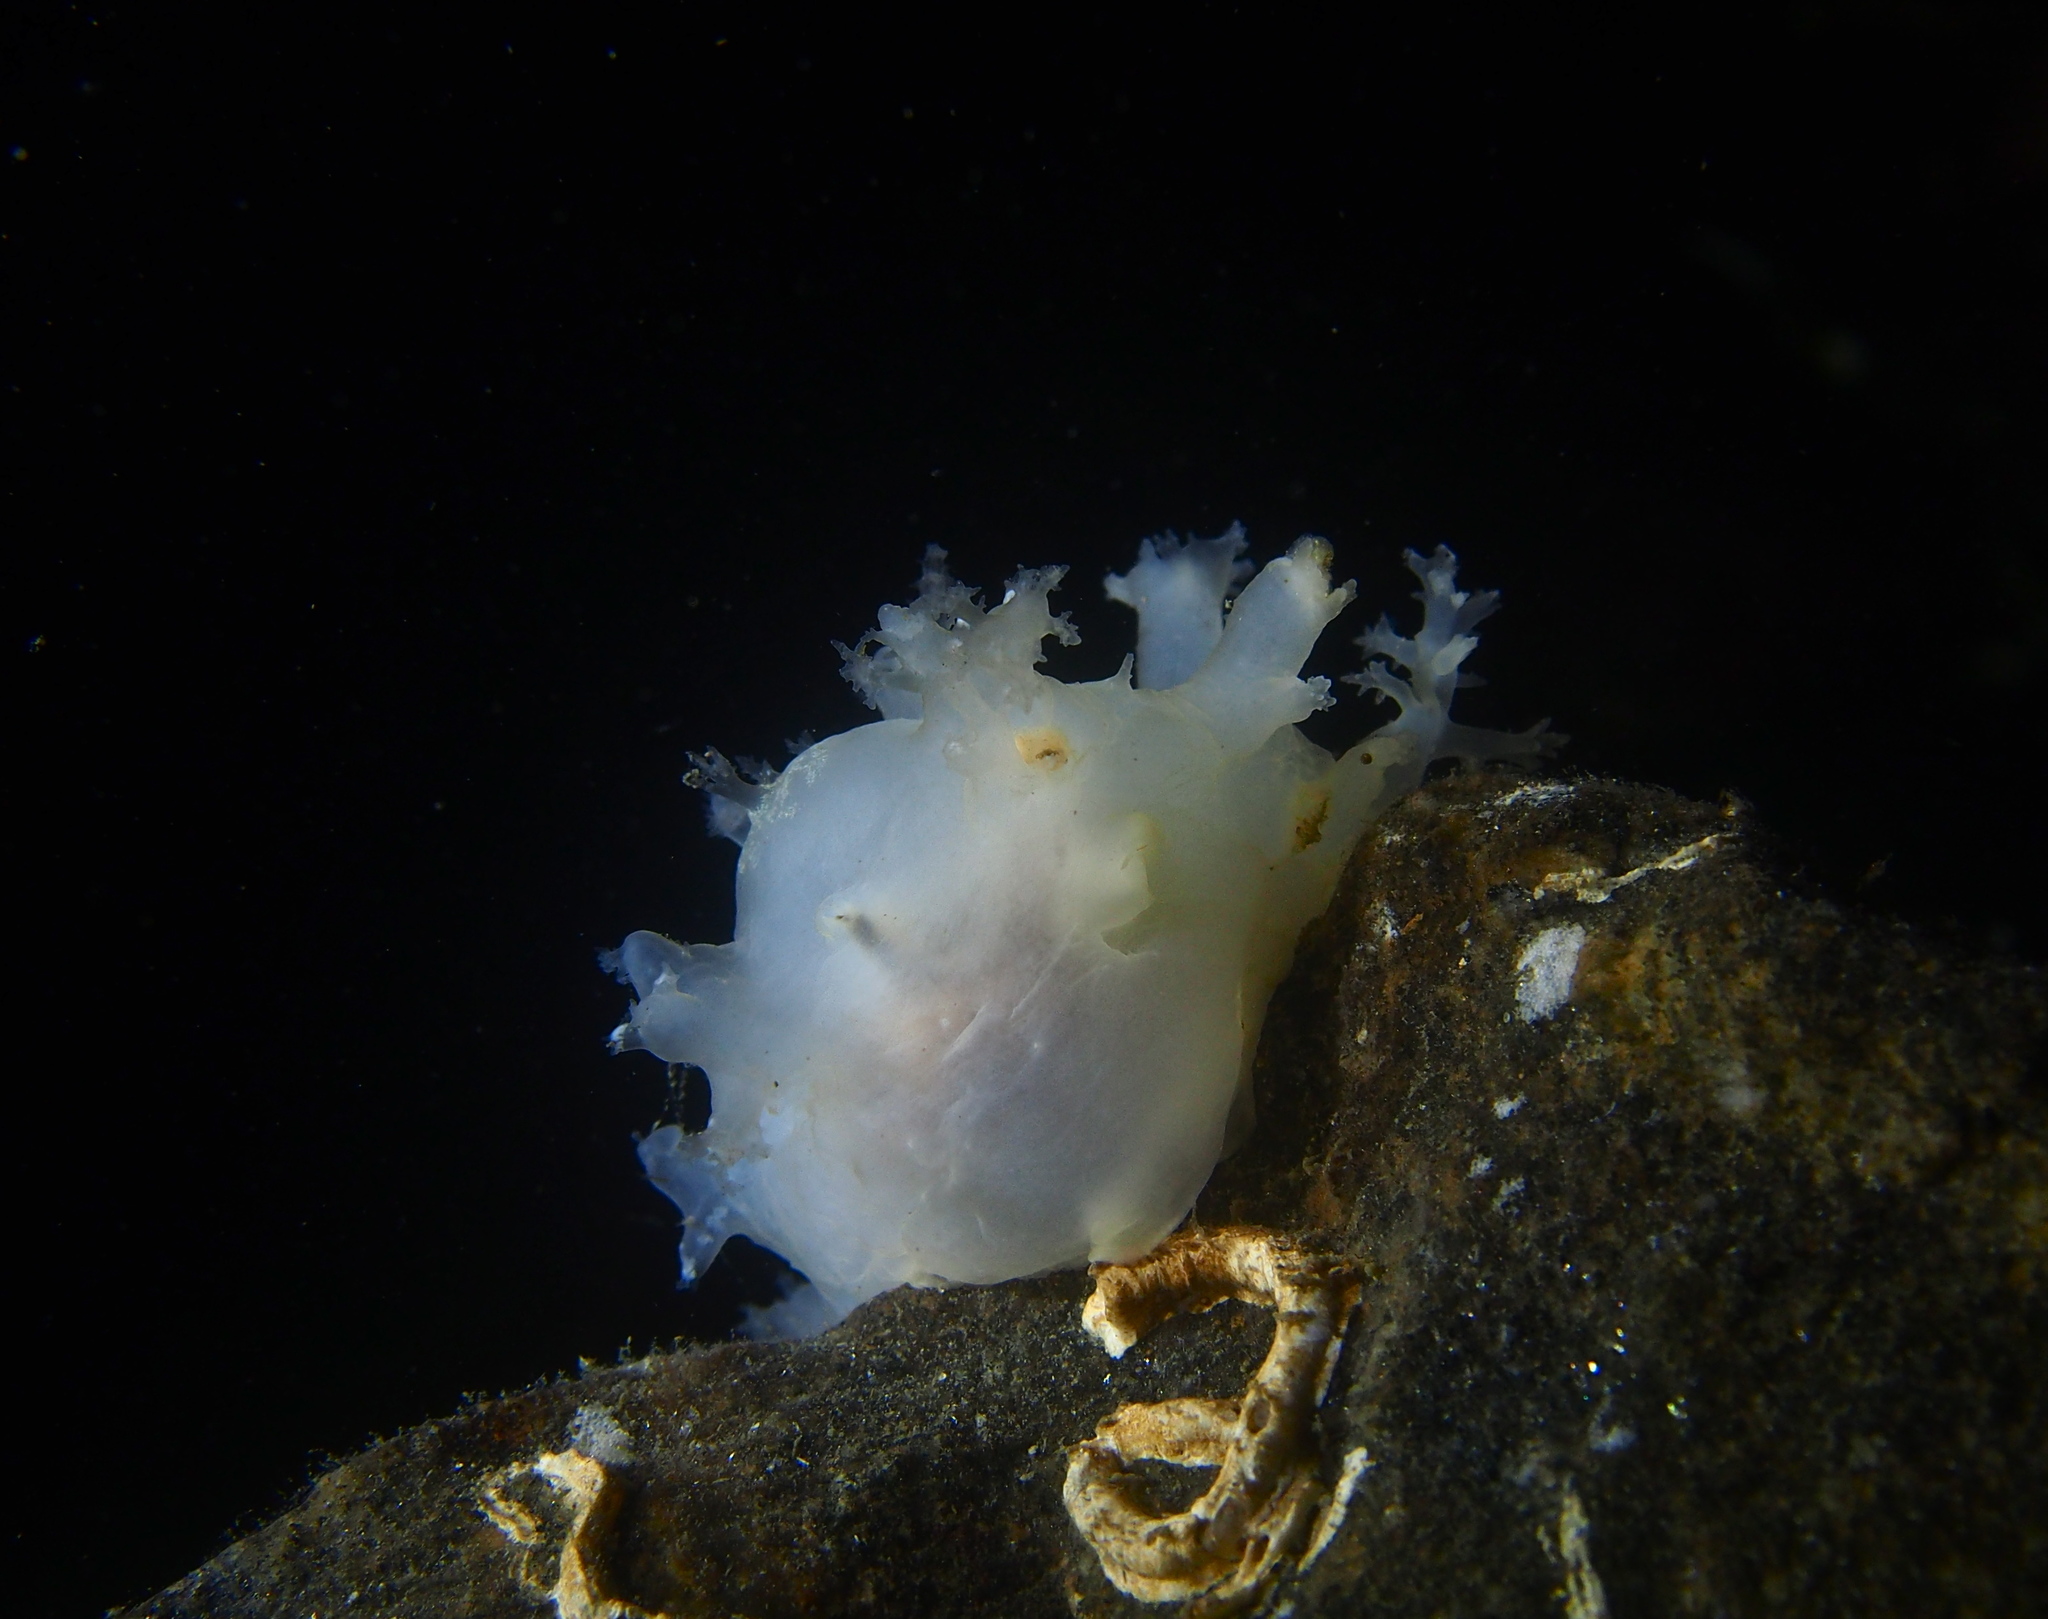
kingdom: Animalia
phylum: Mollusca
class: Gastropoda
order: Nudibranchia
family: Dendronotidae
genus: Dendronotus
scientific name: Dendronotus lacteus
